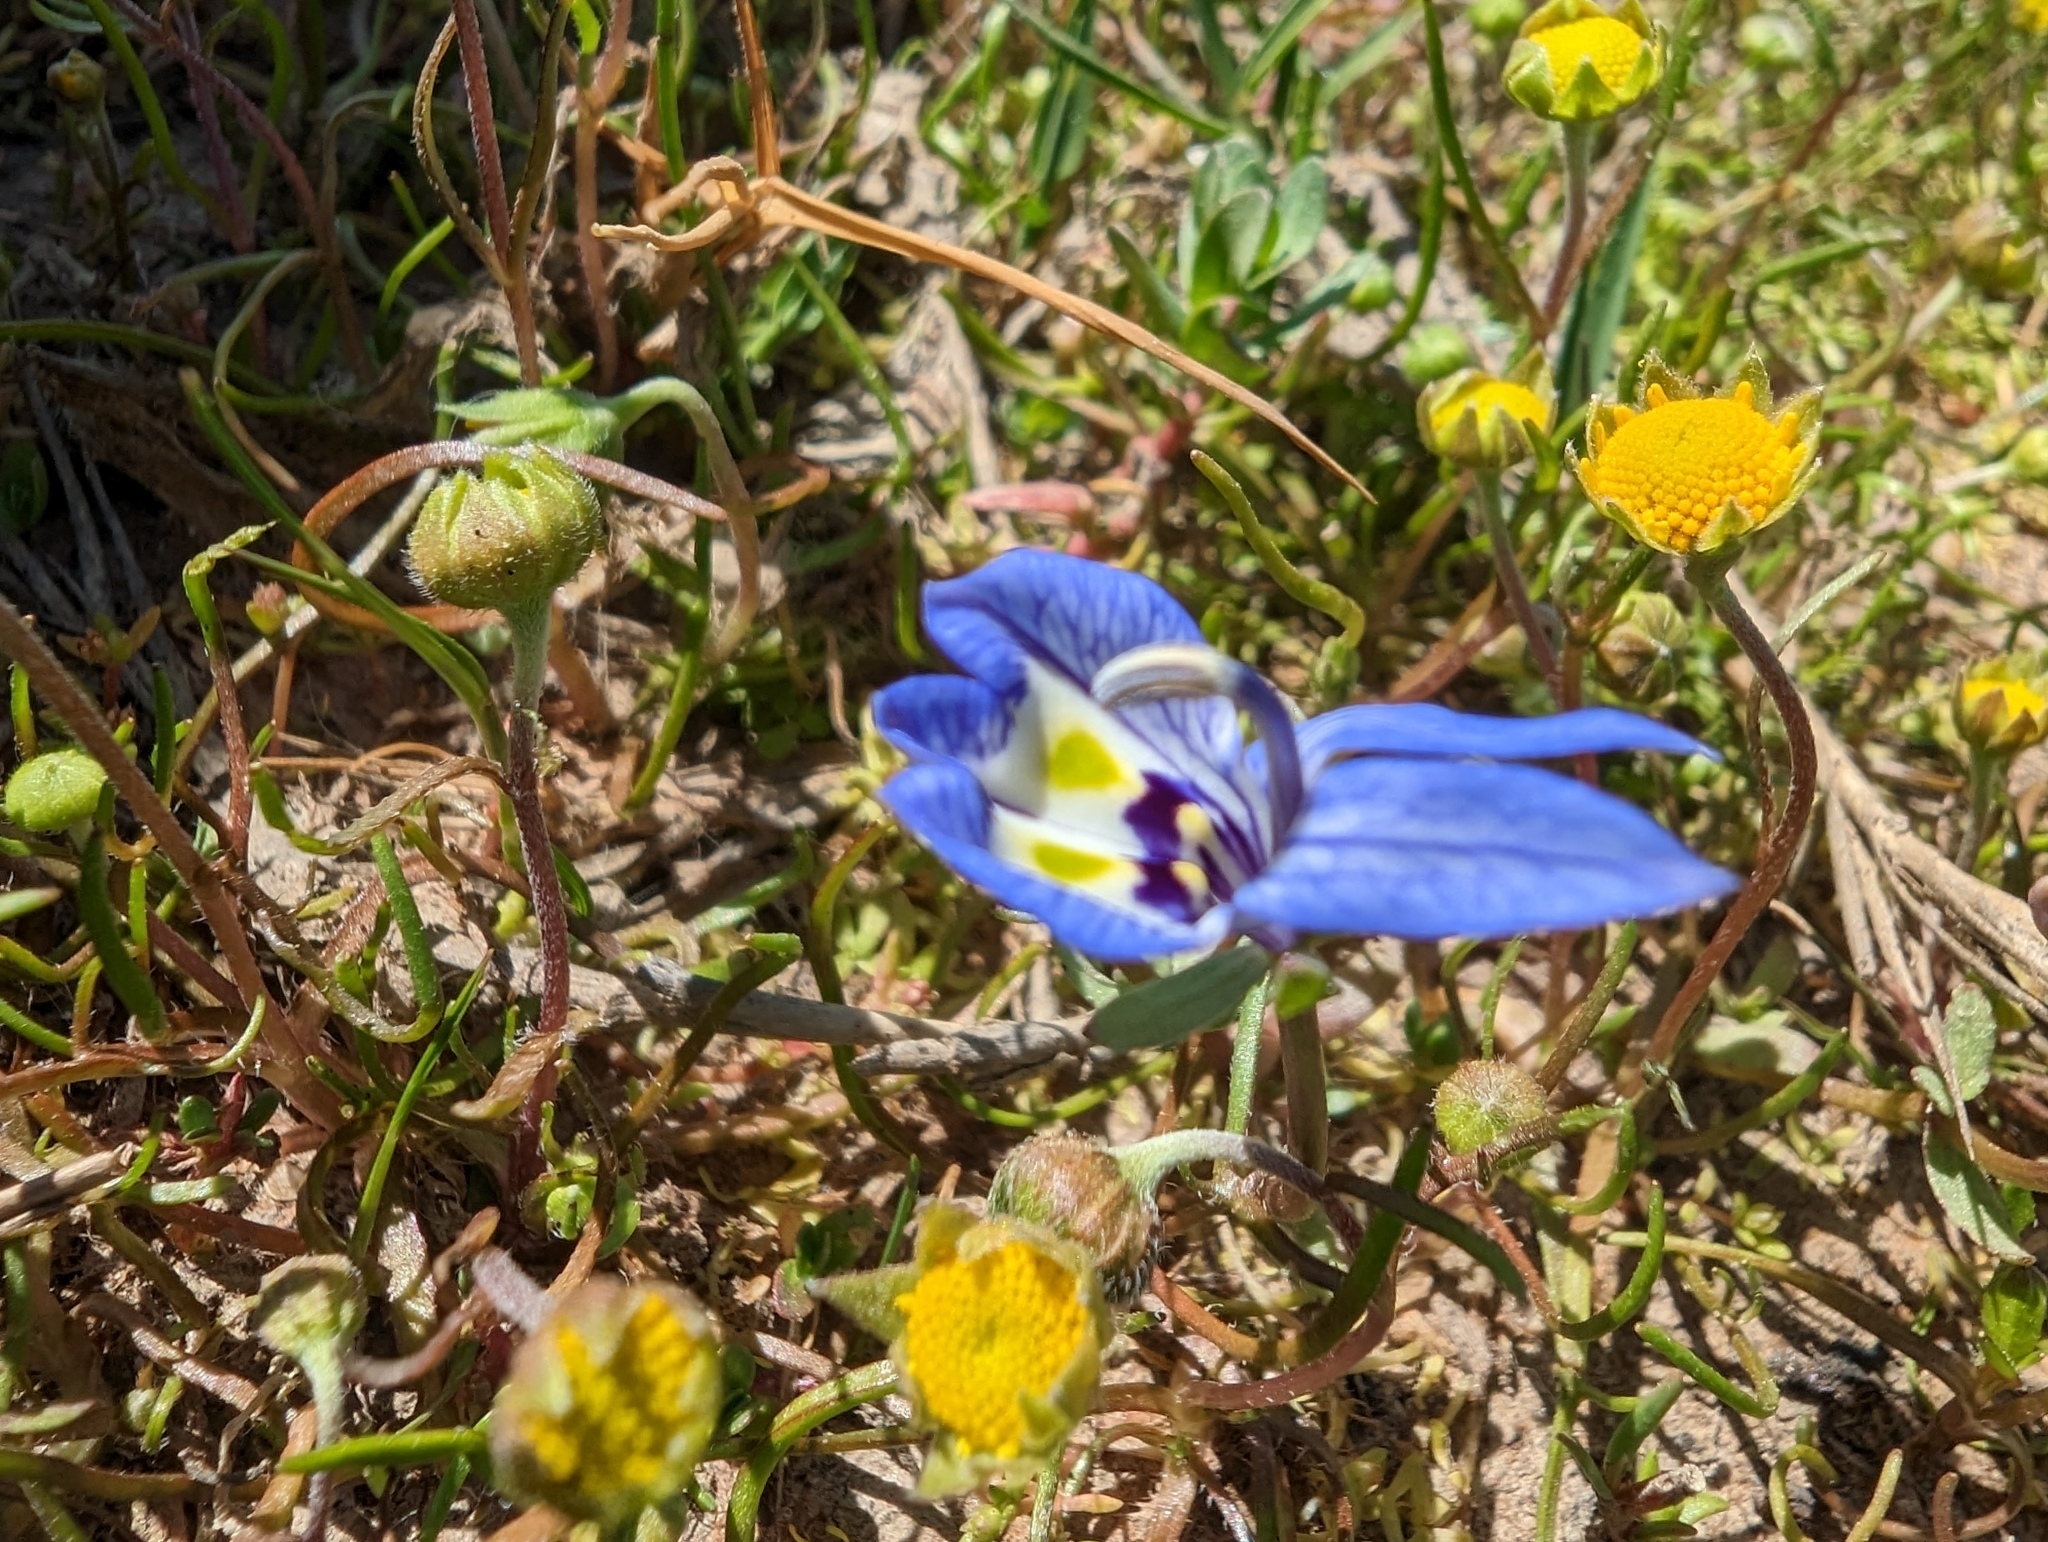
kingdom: Plantae
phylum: Tracheophyta
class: Magnoliopsida
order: Asterales
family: Campanulaceae
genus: Downingia
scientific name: Downingia insignis
